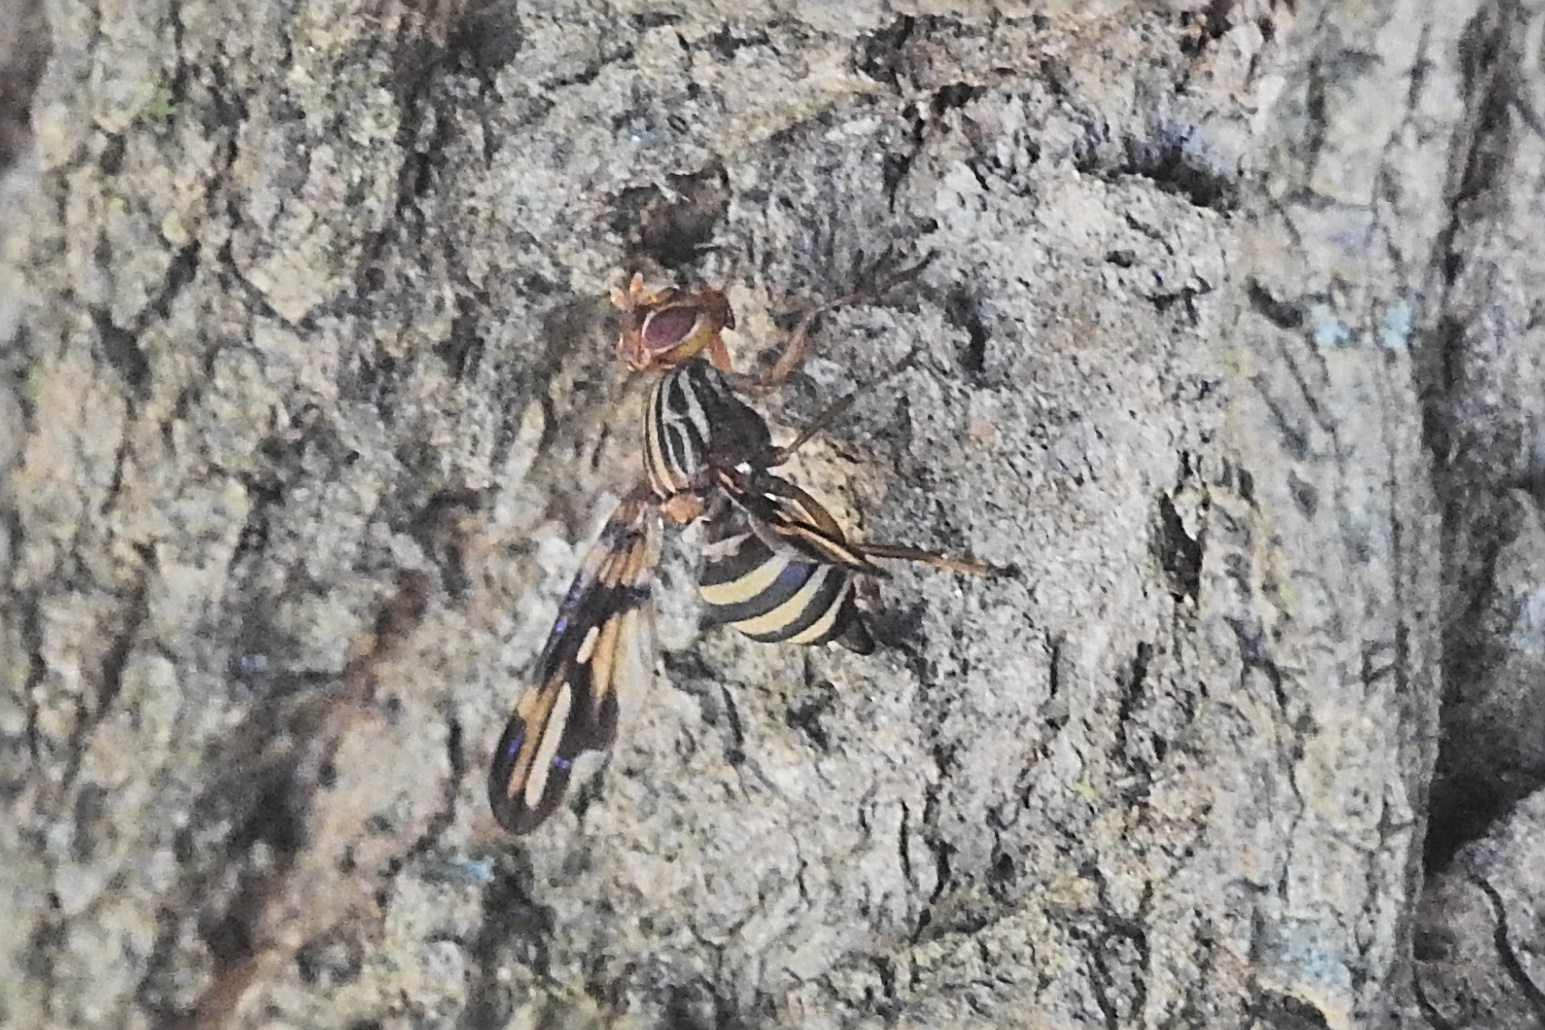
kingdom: Animalia
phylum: Arthropoda
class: Insecta
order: Diptera
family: Ulidiidae
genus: Idana
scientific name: Idana marginata
